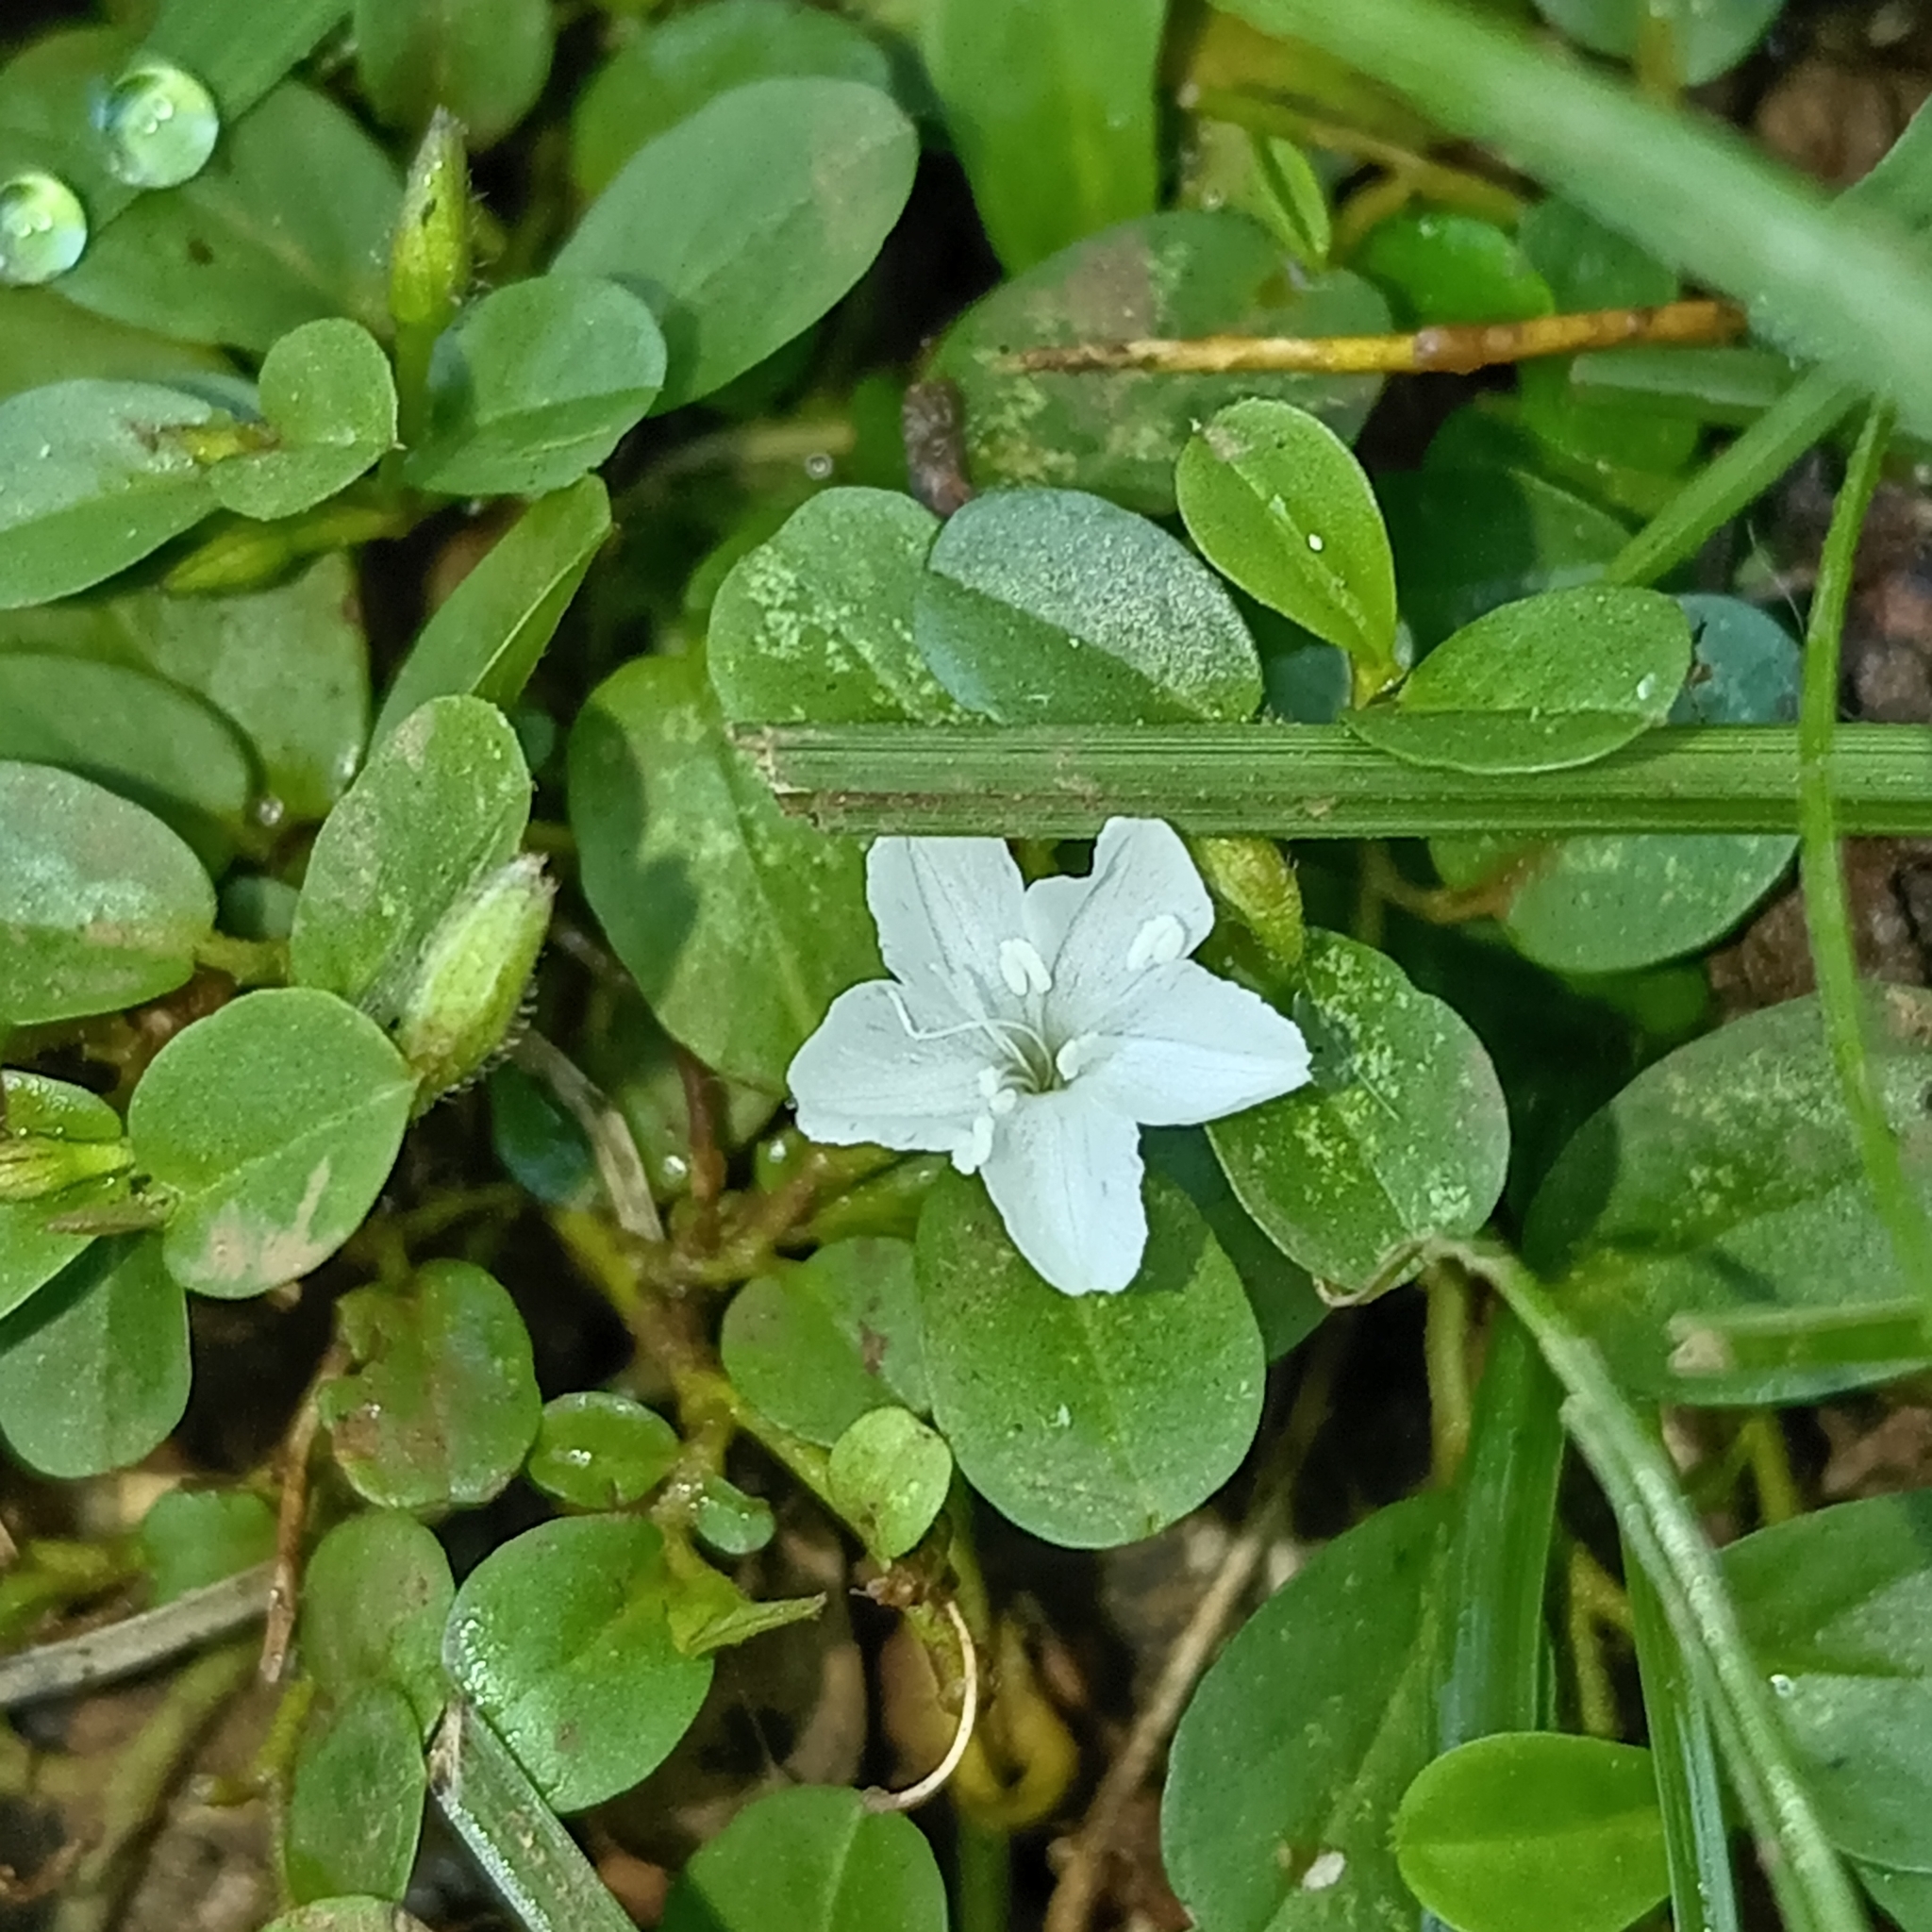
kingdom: Plantae
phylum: Tracheophyta
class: Magnoliopsida
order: Solanales
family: Convolvulaceae
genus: Evolvulus
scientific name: Evolvulus nummularius
